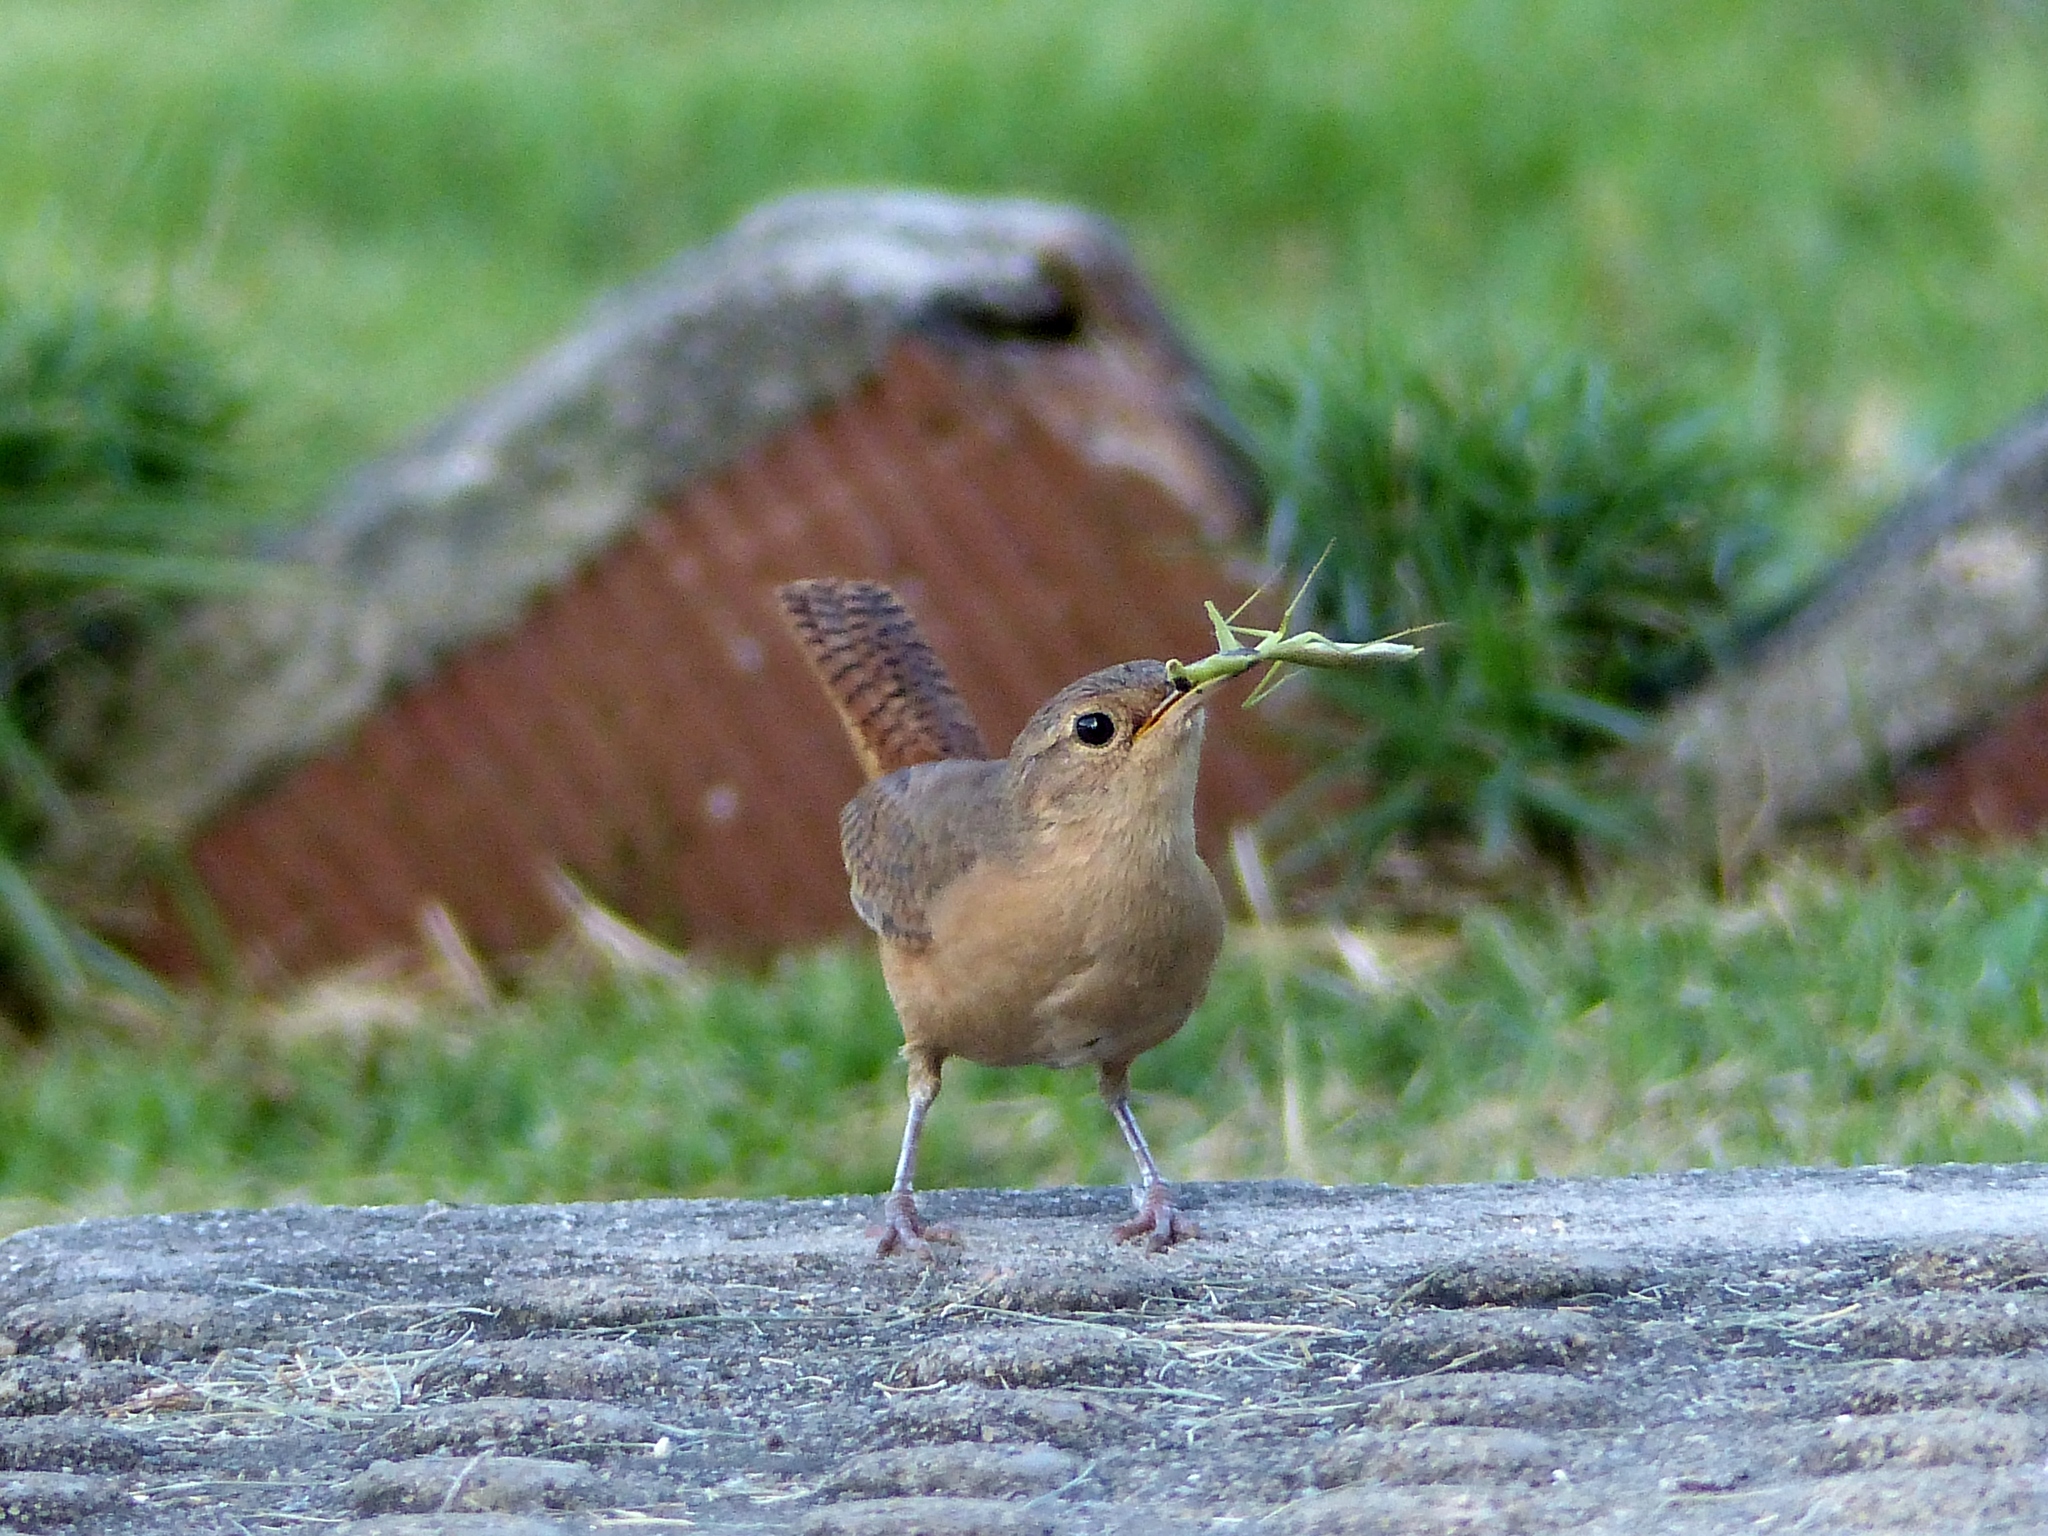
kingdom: Animalia
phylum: Chordata
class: Aves
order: Passeriformes
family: Troglodytidae
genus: Troglodytes
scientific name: Troglodytes aedon
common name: House wren
